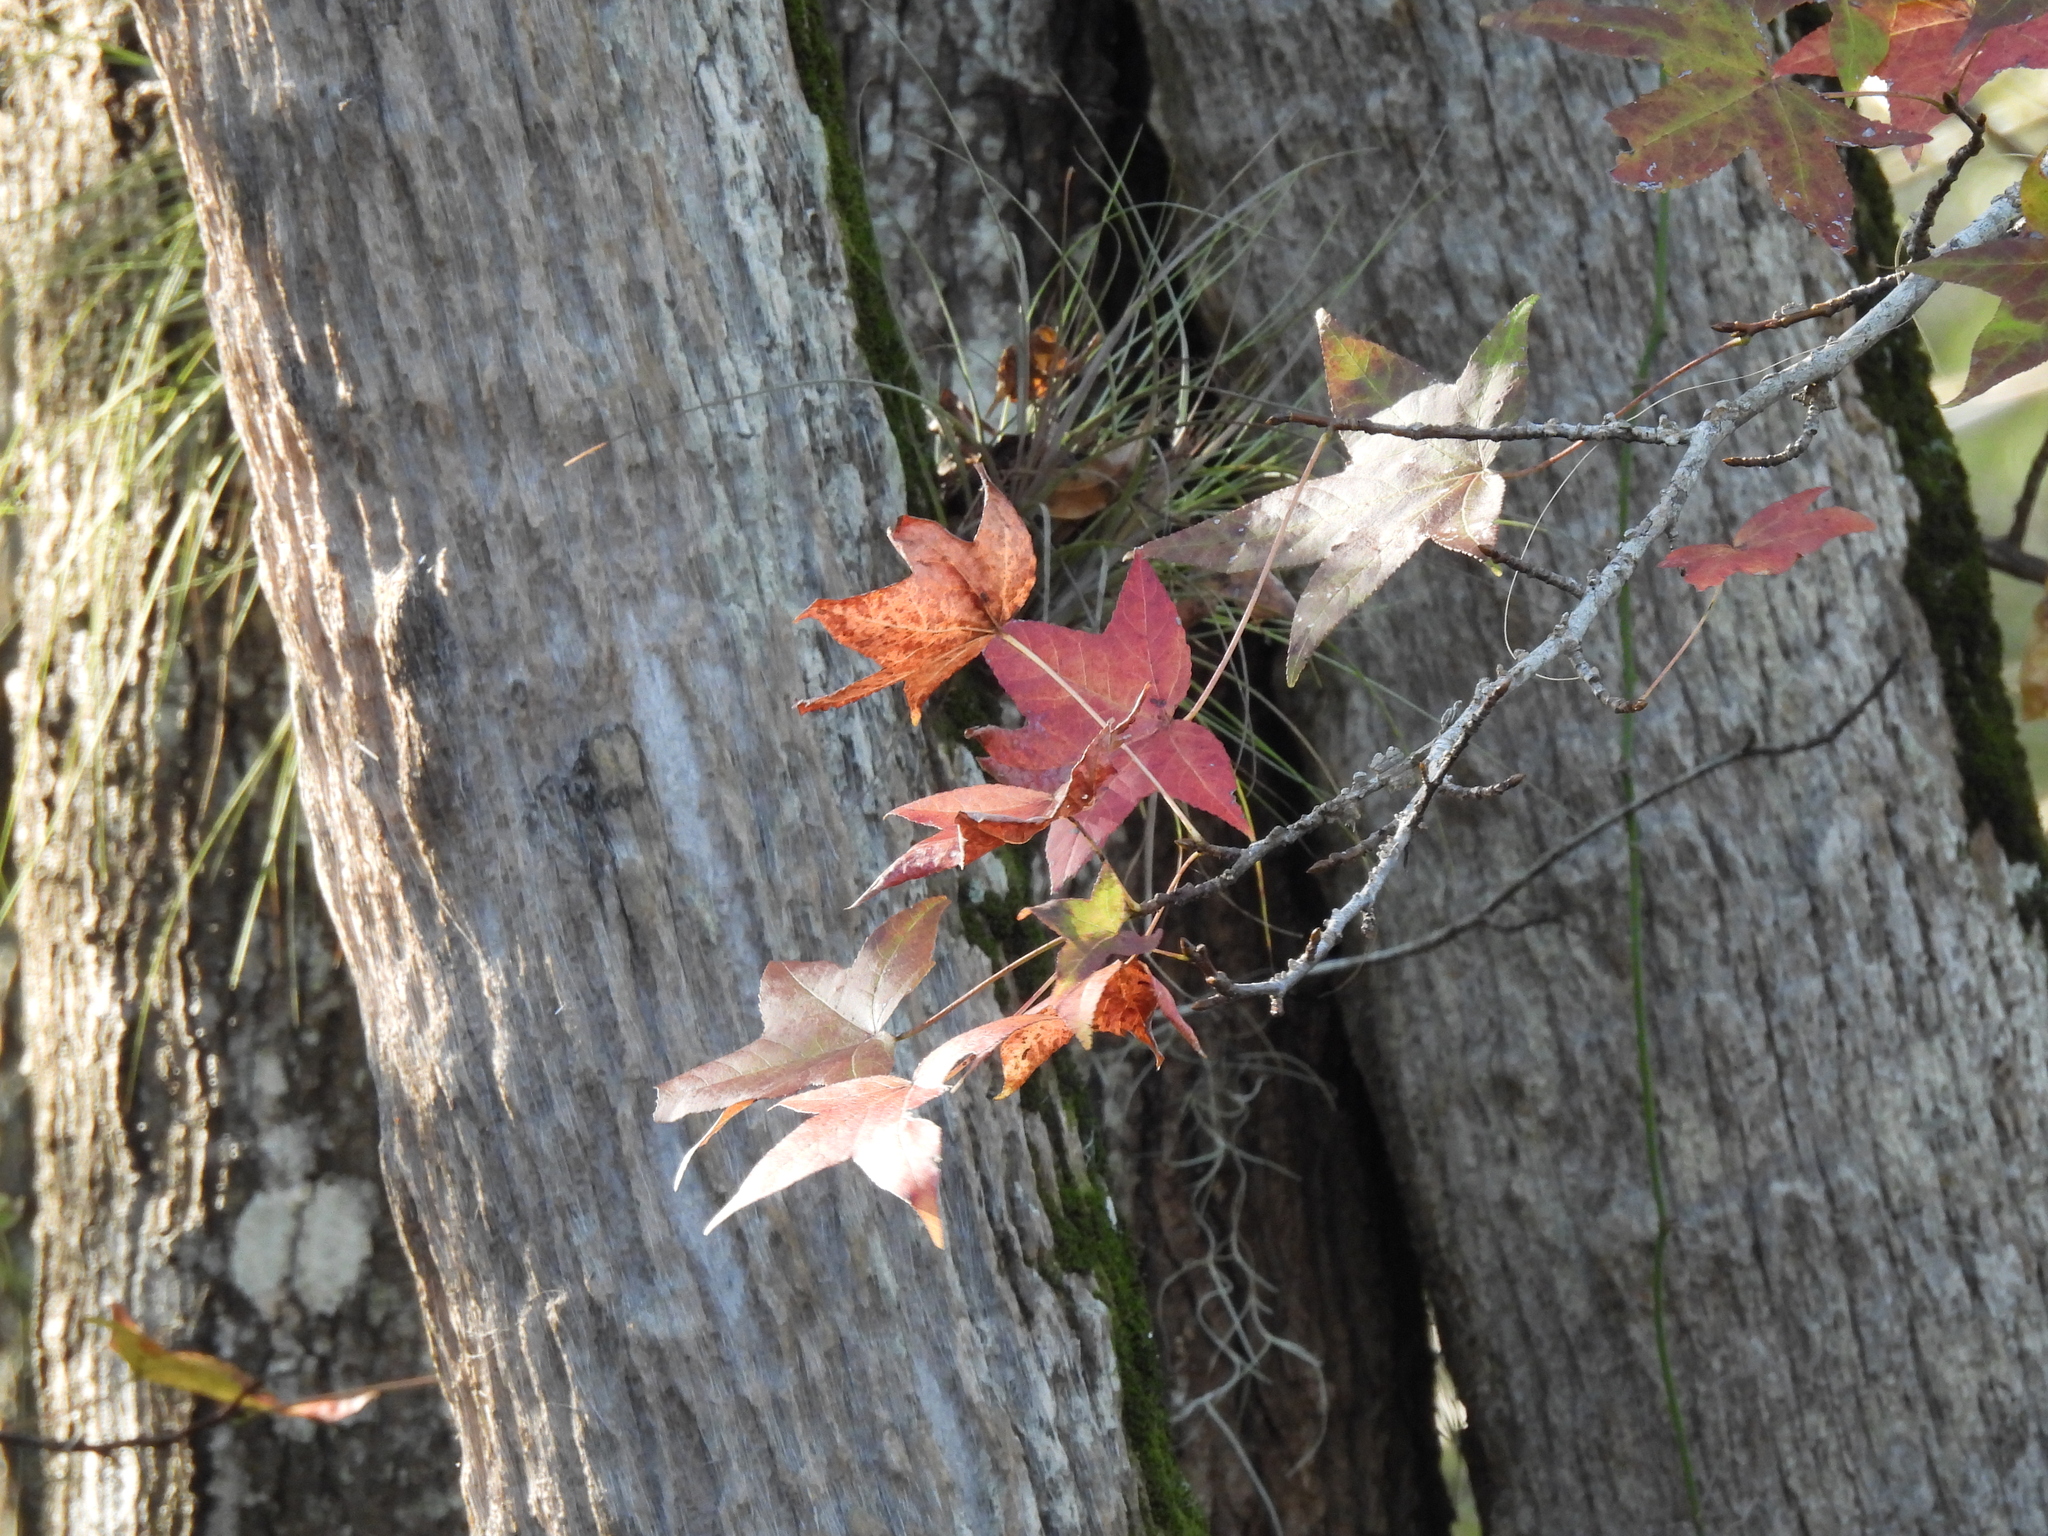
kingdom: Plantae
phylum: Tracheophyta
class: Magnoliopsida
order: Saxifragales
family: Altingiaceae
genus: Liquidambar
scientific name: Liquidambar styraciflua
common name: Sweet gum
